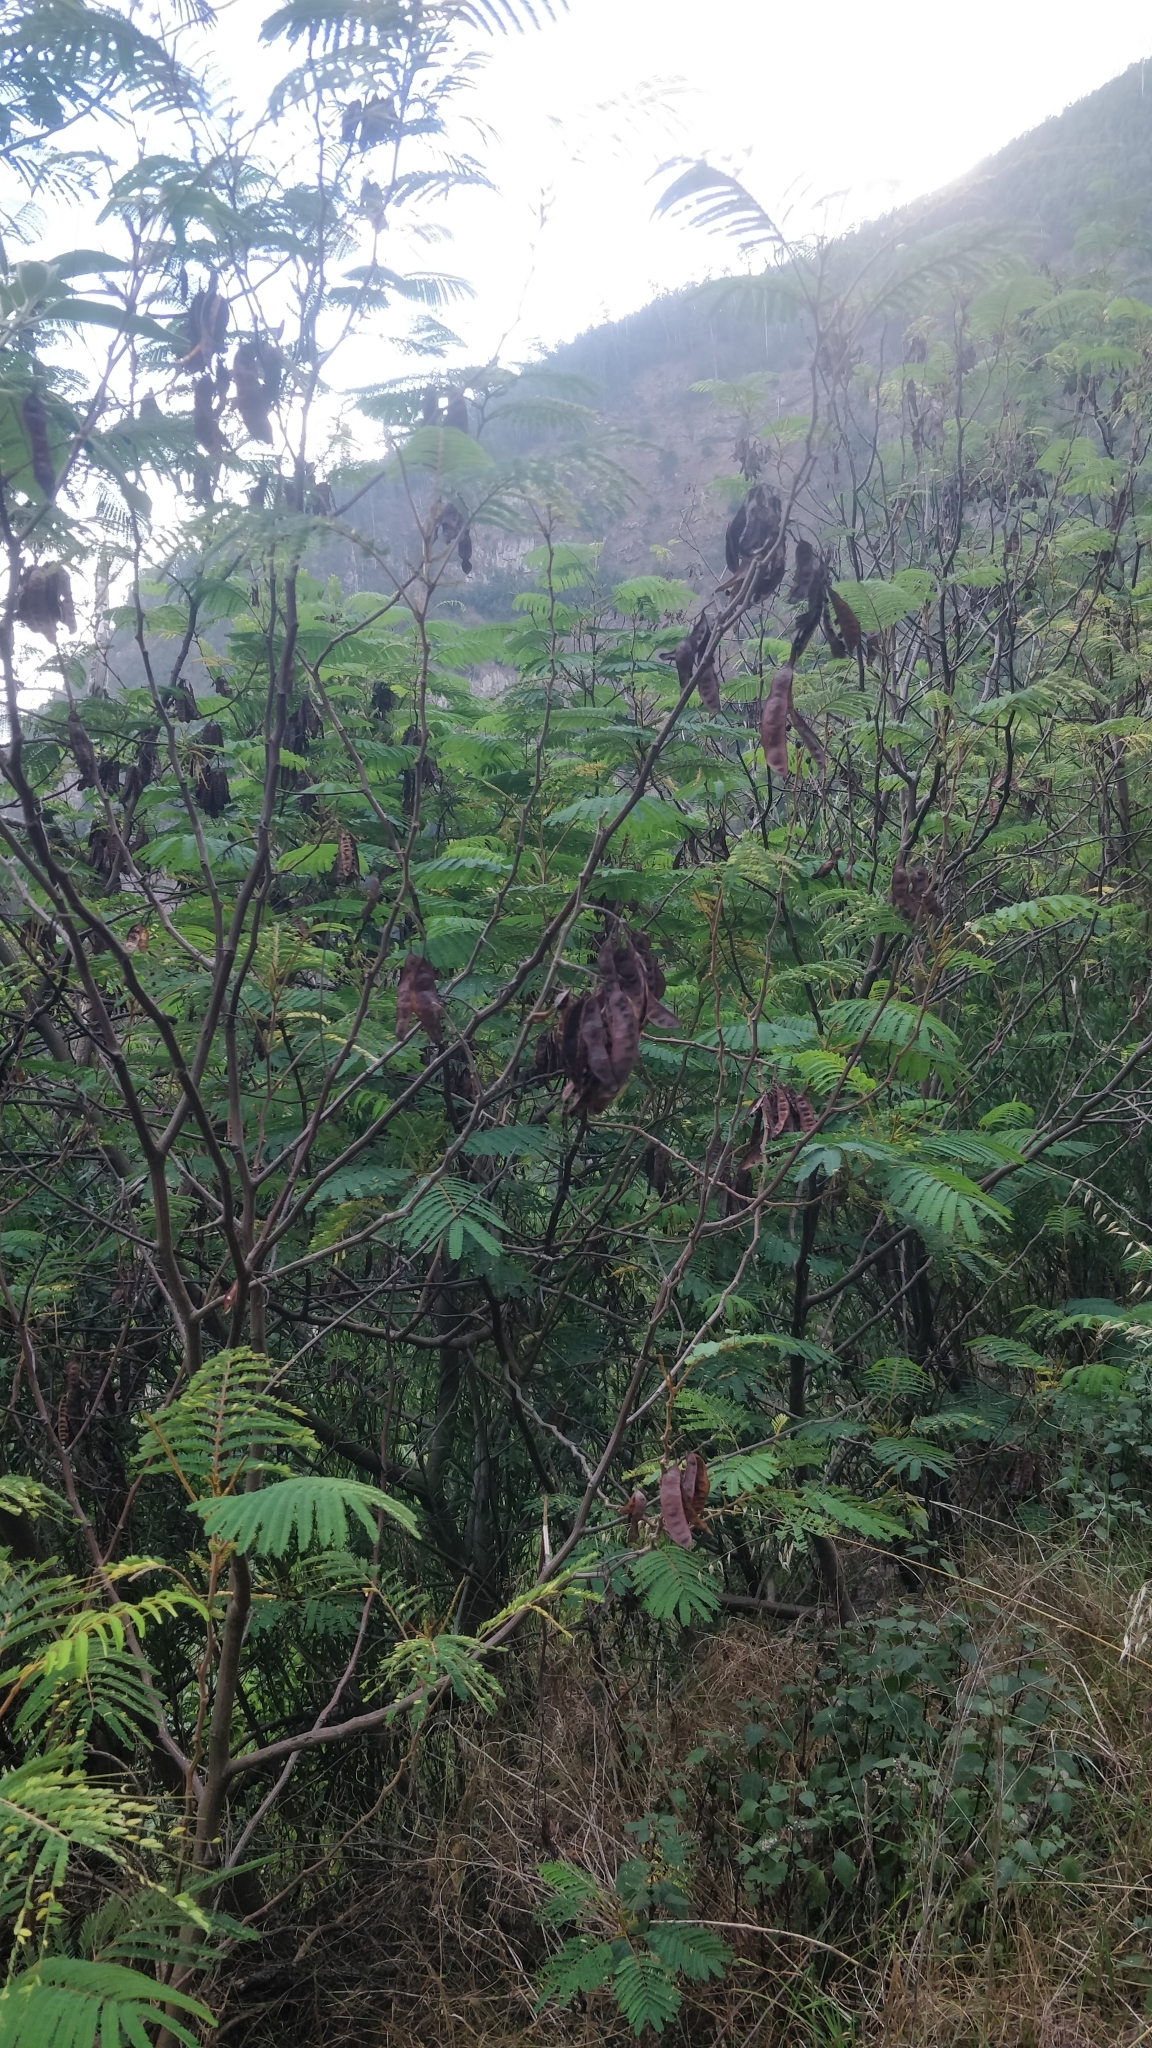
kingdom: Plantae
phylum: Tracheophyta
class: Magnoliopsida
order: Fabales
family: Fabaceae
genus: Paraserianthes
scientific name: Paraserianthes lophantha
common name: Plume albizia
